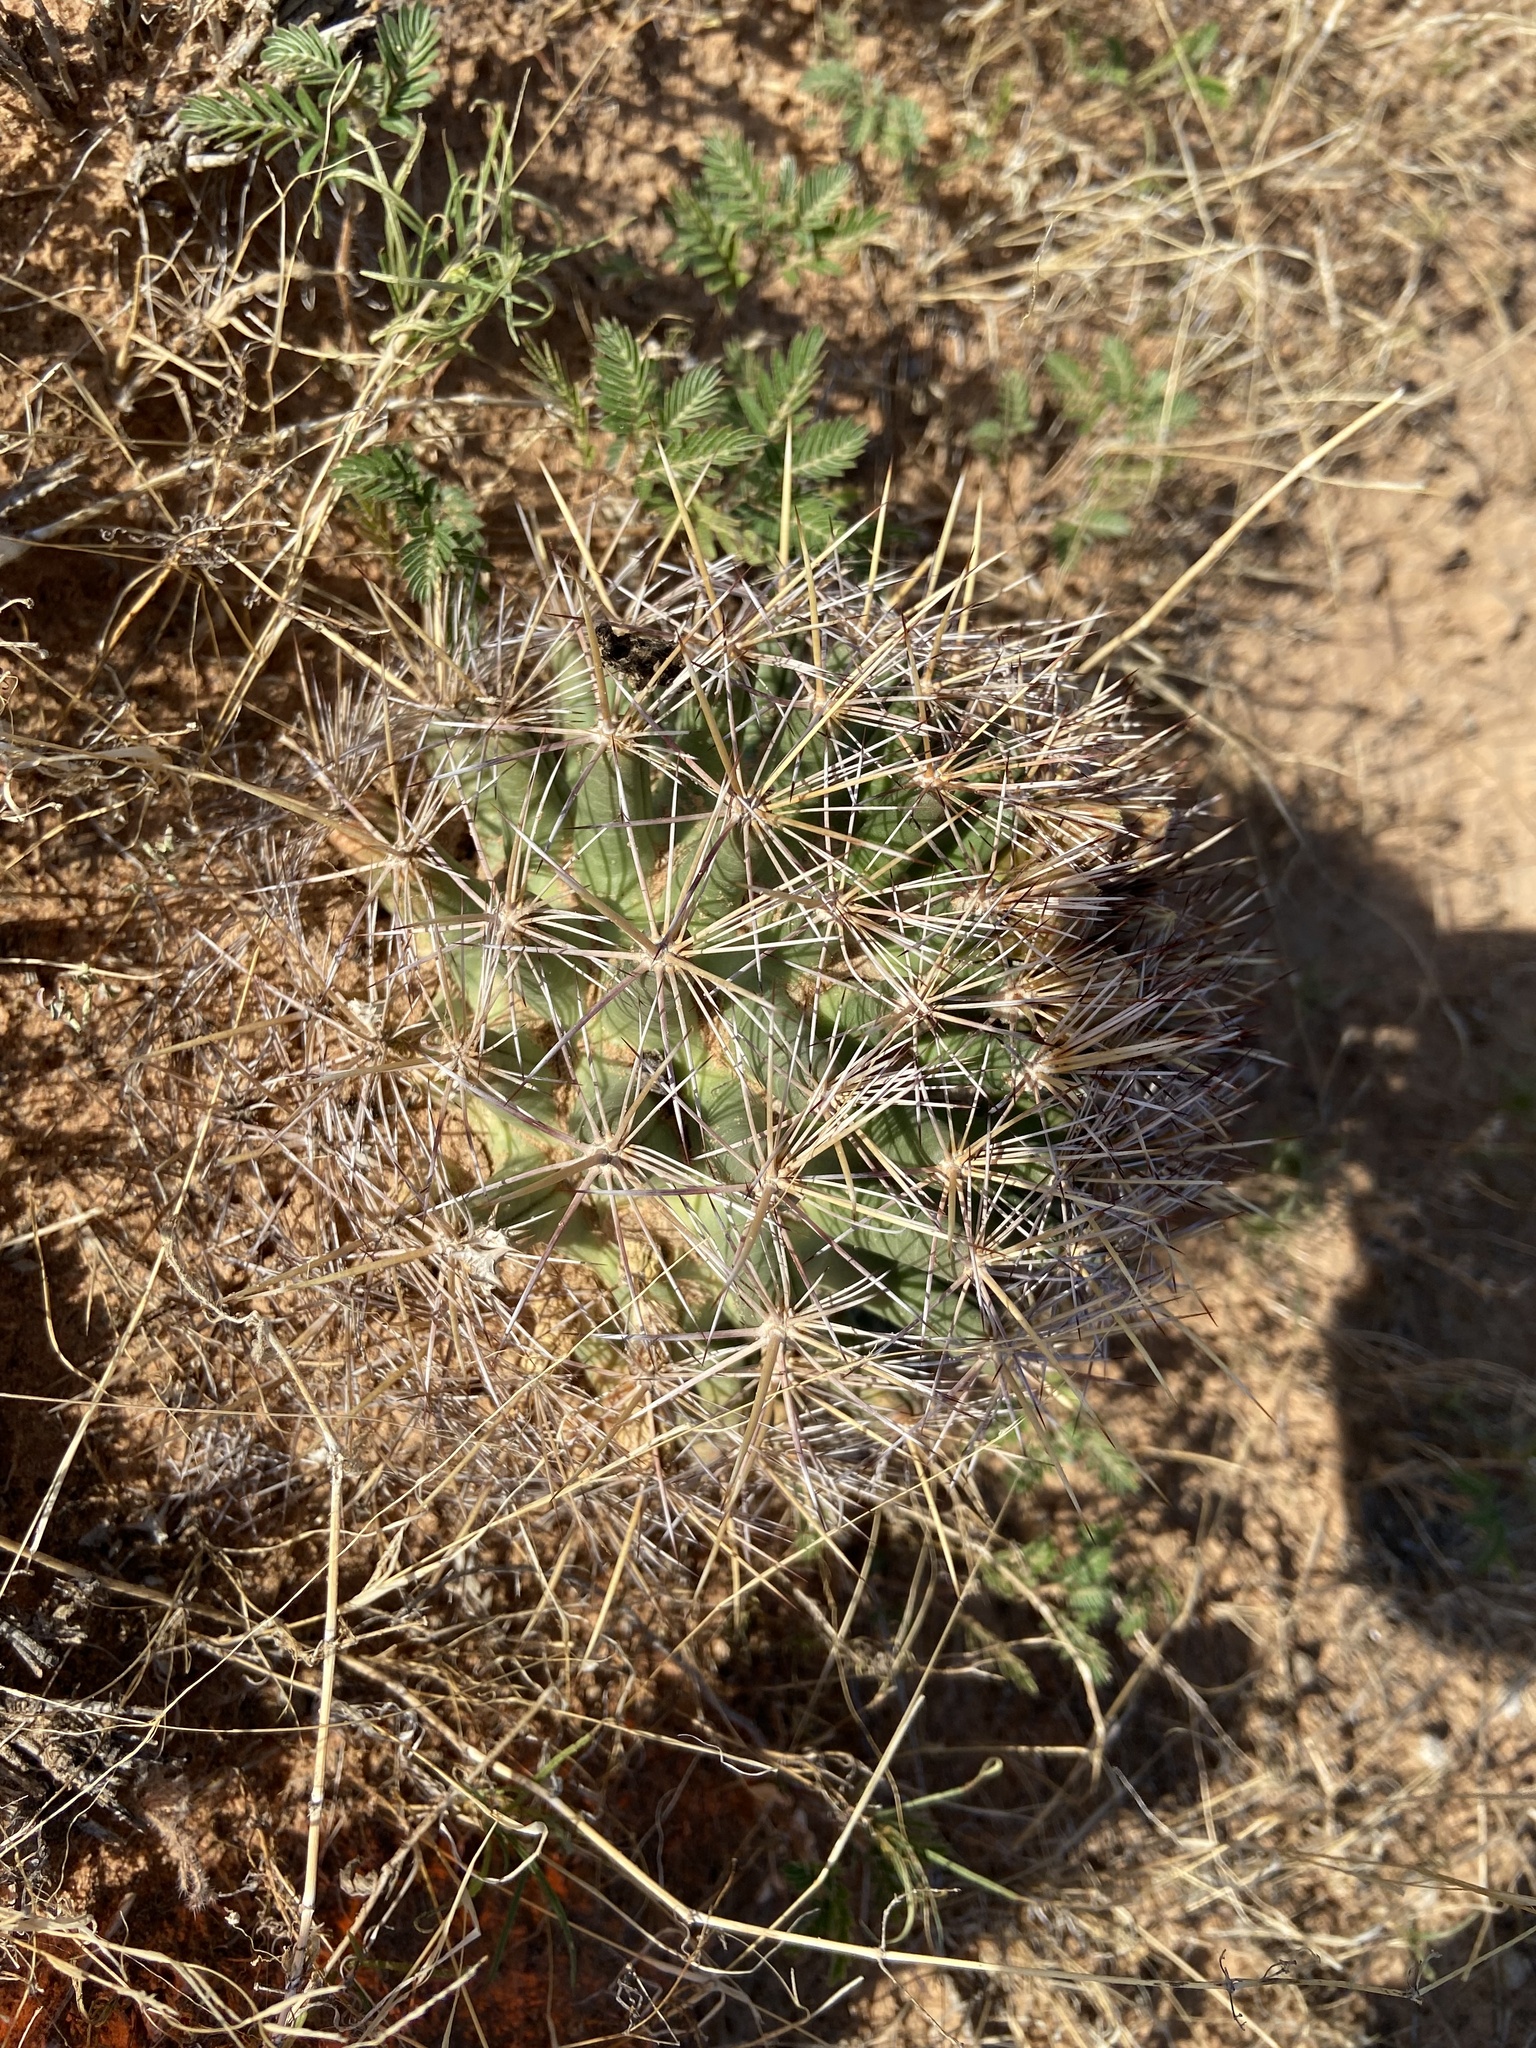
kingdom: Plantae
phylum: Tracheophyta
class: Magnoliopsida
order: Caryophyllales
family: Cactaceae
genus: Coryphantha
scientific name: Coryphantha robustispina
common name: Pima pineapple cactus
